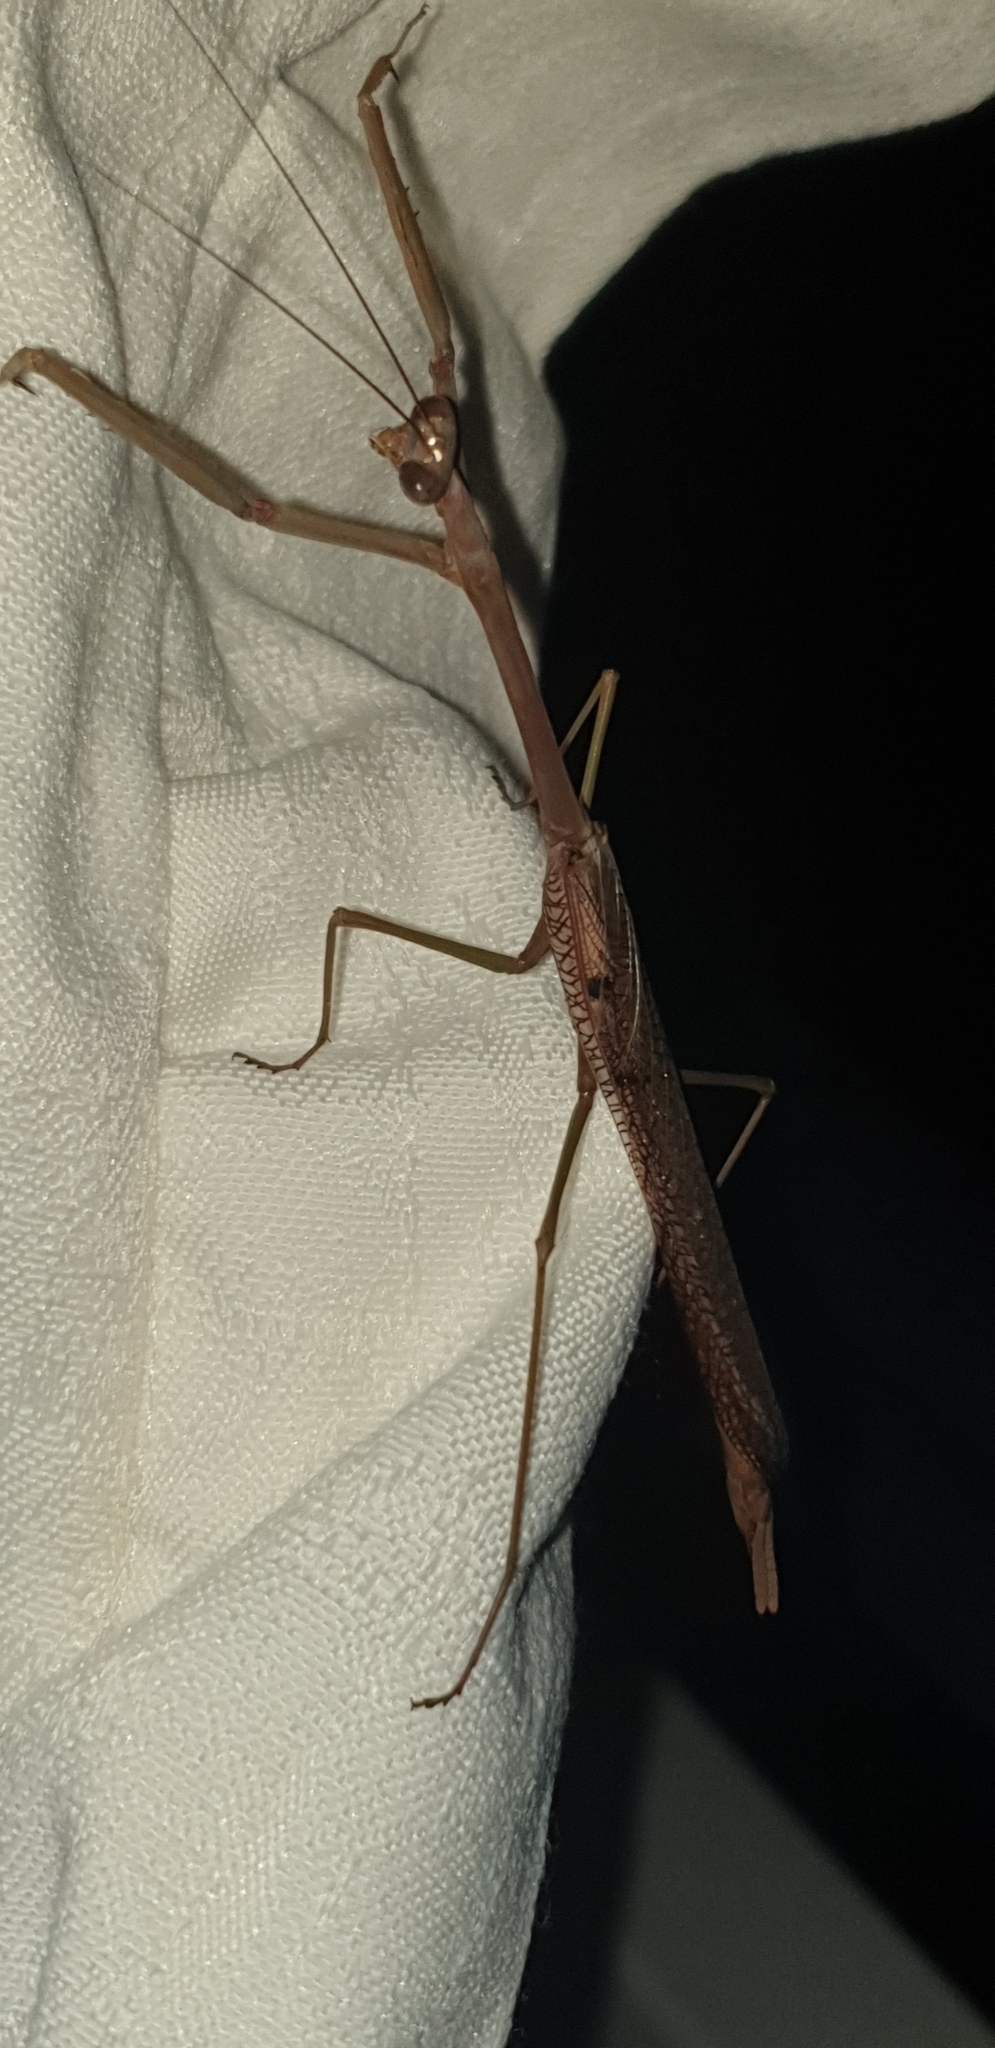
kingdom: Animalia
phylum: Arthropoda
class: Insecta
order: Mantodea
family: Mantidae
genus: Archimantis
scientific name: Archimantis latistyla
